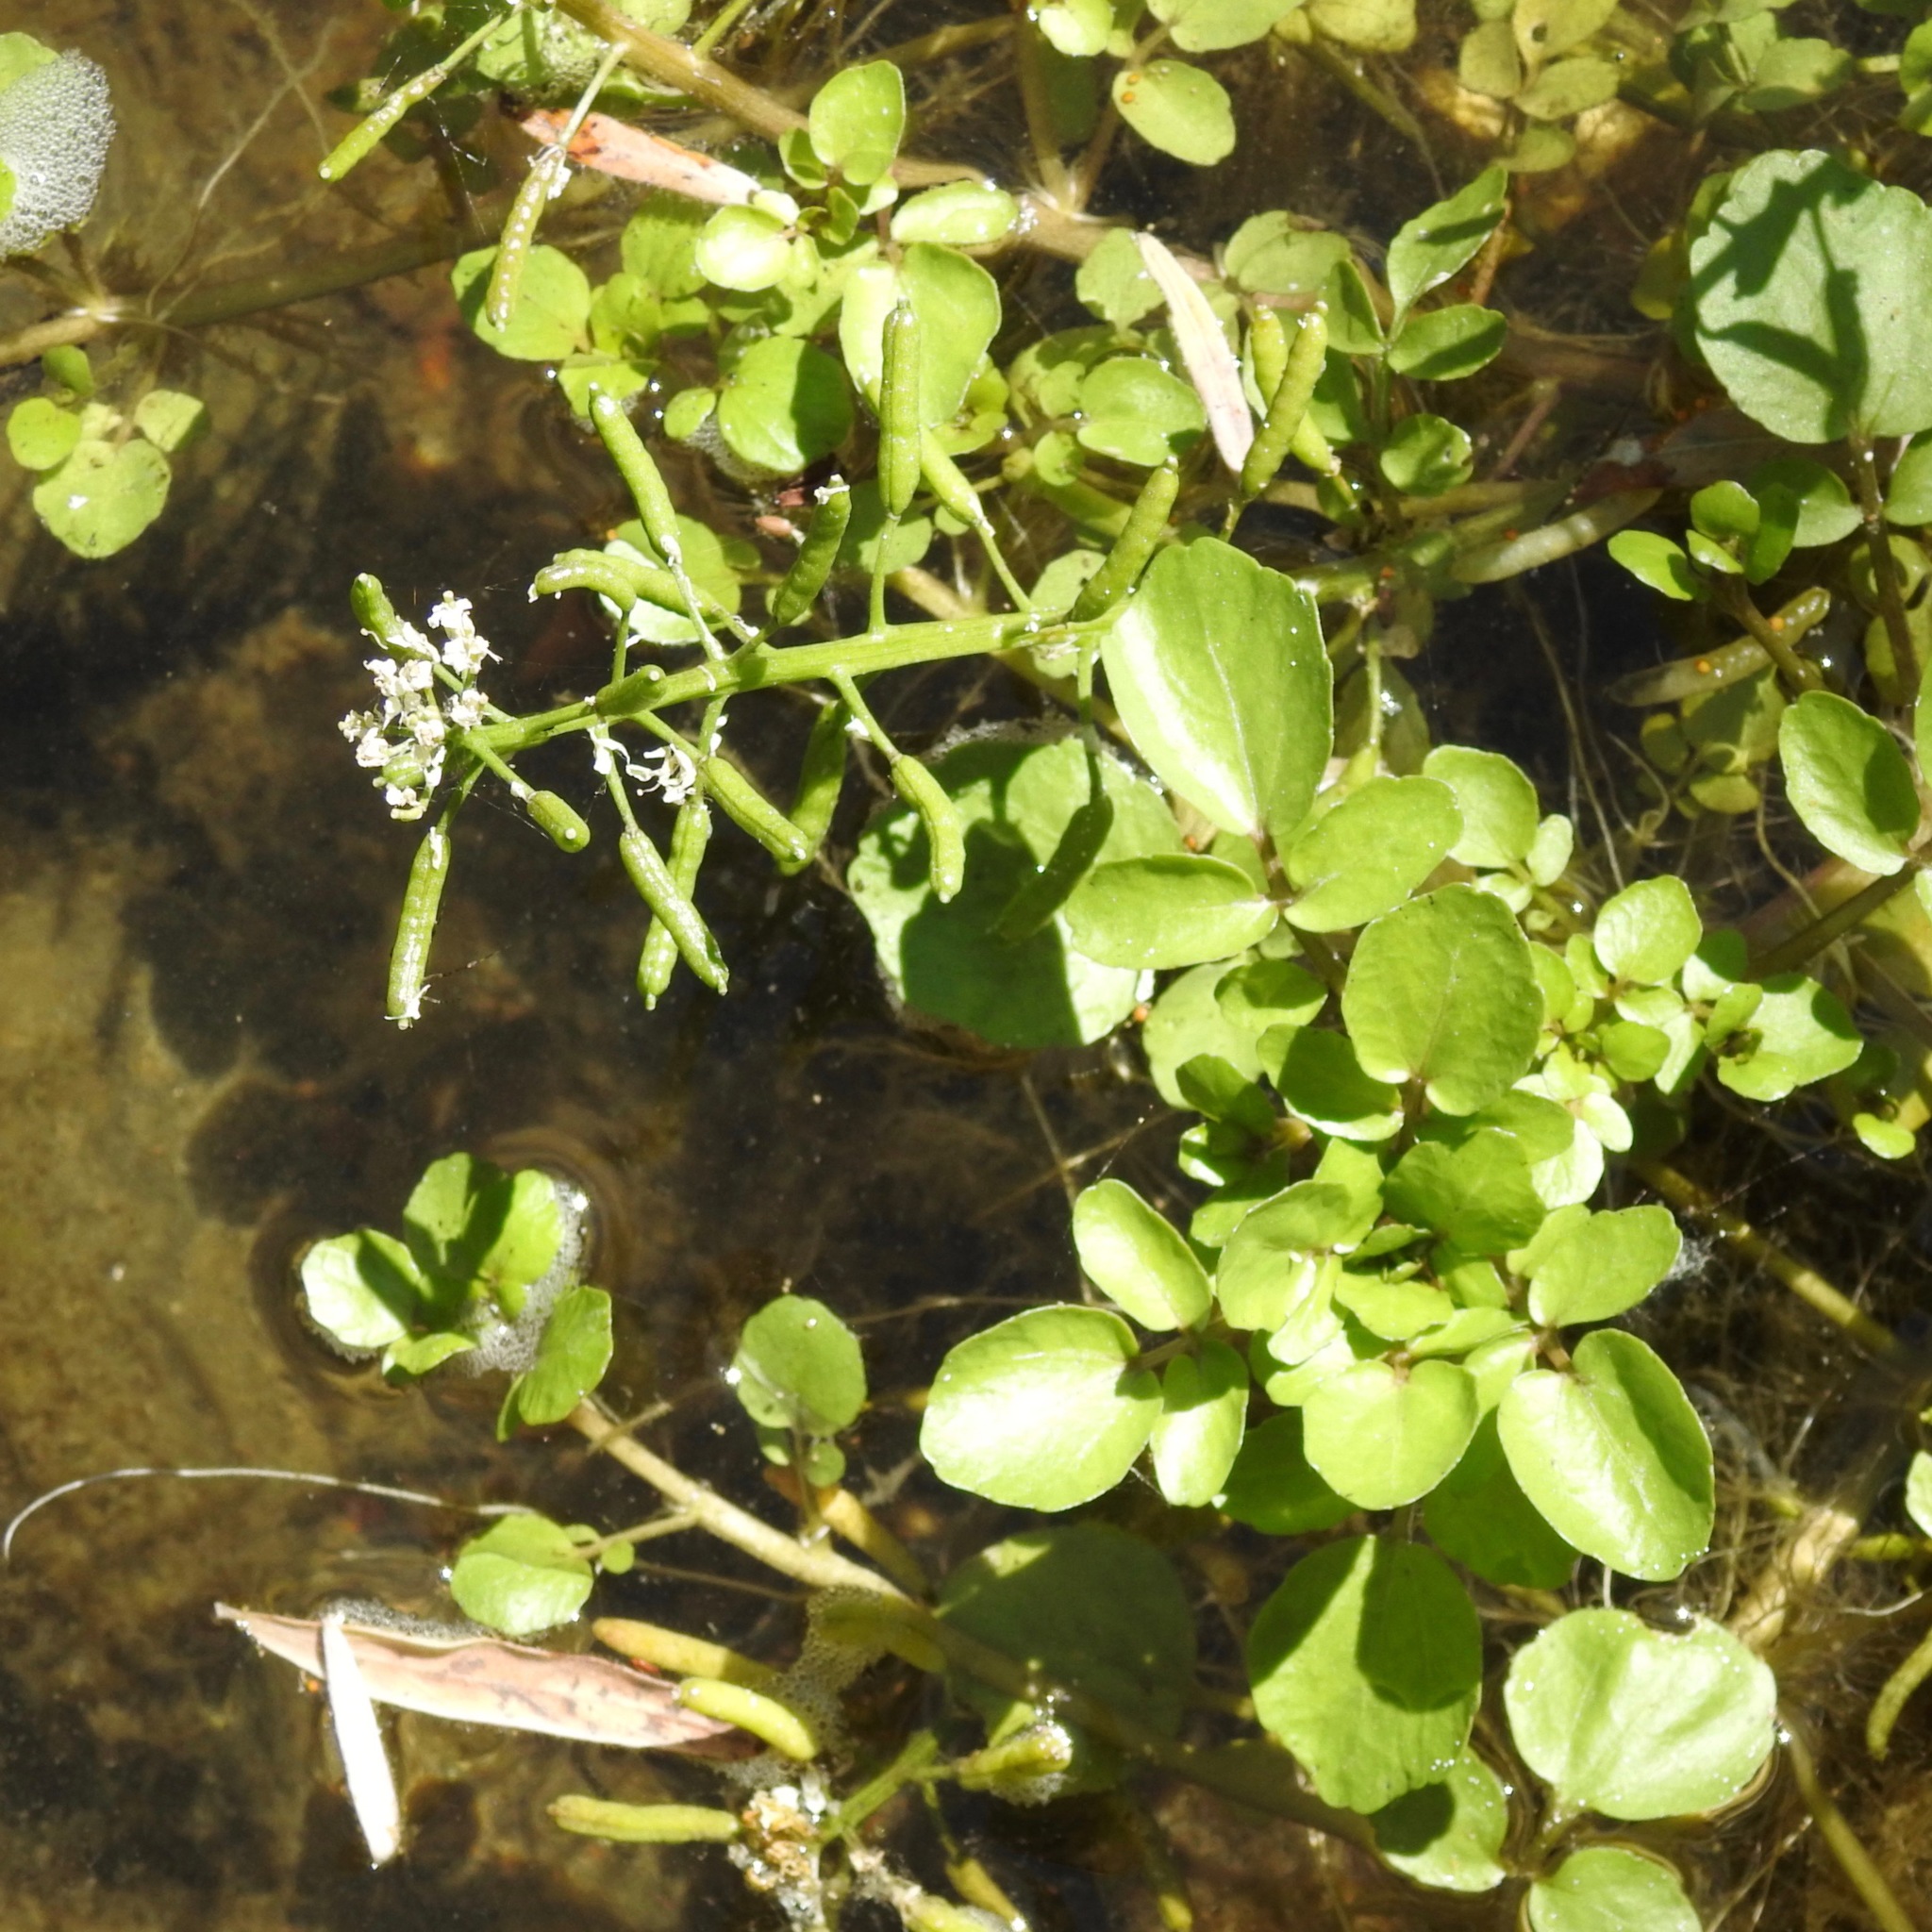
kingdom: Plantae
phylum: Tracheophyta
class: Magnoliopsida
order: Brassicales
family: Brassicaceae
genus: Nasturtium
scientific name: Nasturtium officinale
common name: Watercress
